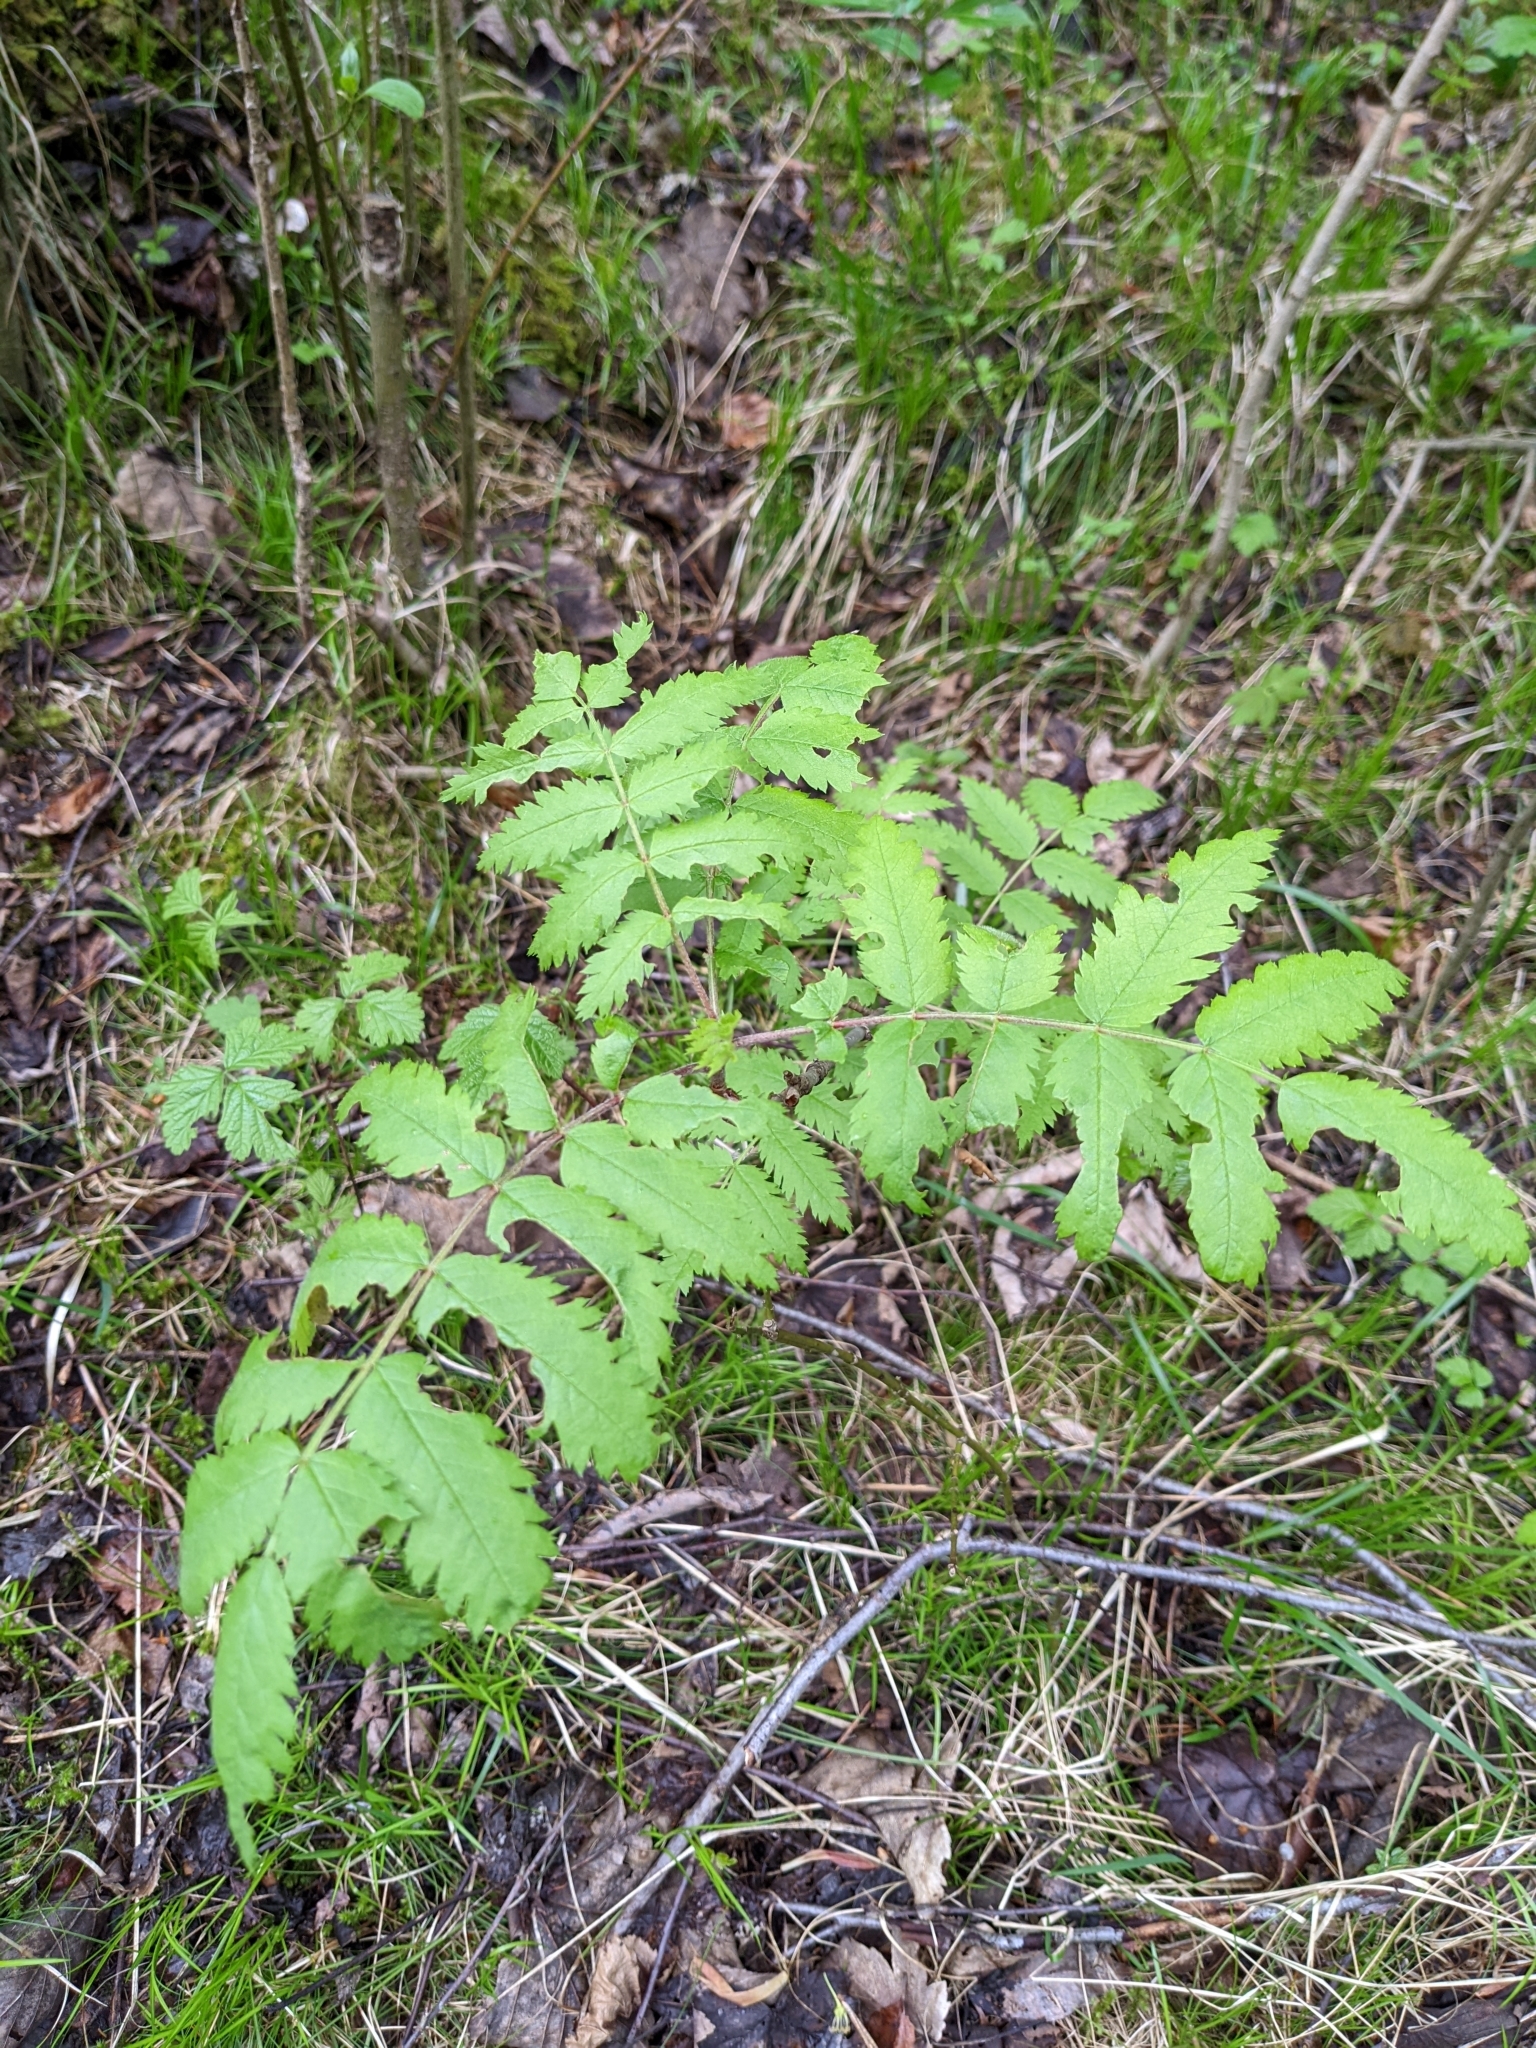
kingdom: Plantae
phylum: Tracheophyta
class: Magnoliopsida
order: Rosales
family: Rosaceae
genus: Sorbus
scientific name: Sorbus aucuparia
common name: Rowan
